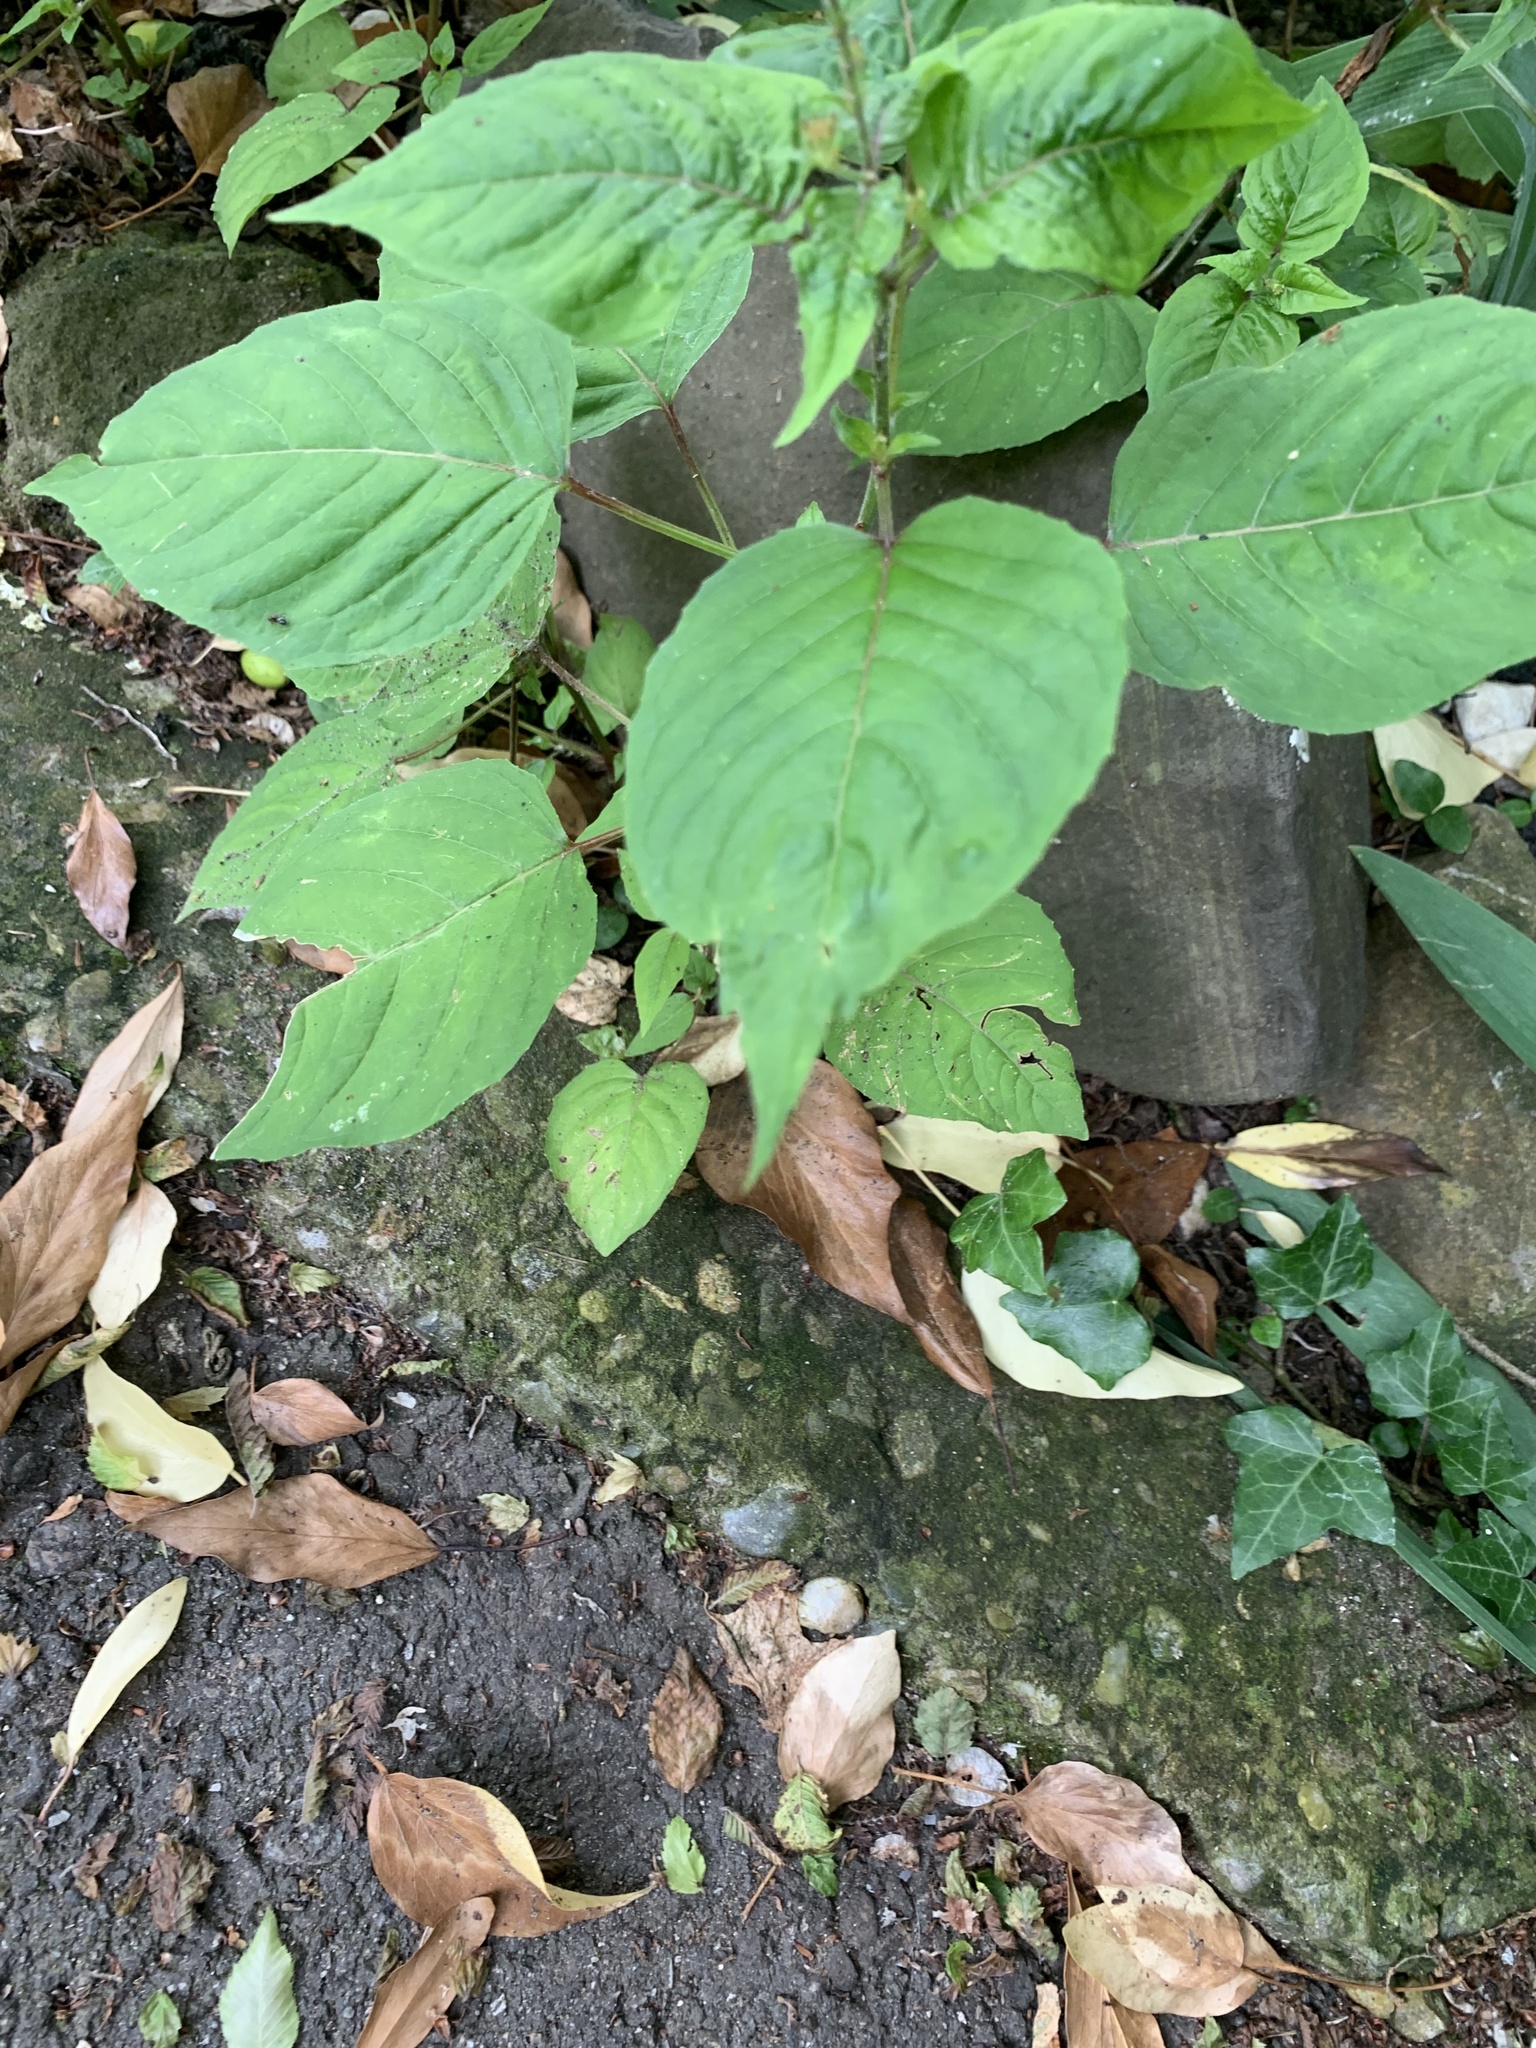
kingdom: Plantae
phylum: Tracheophyta
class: Magnoliopsida
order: Myrtales
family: Onagraceae
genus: Circaea
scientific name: Circaea lutetiana
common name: Enchanter's-nightshade
